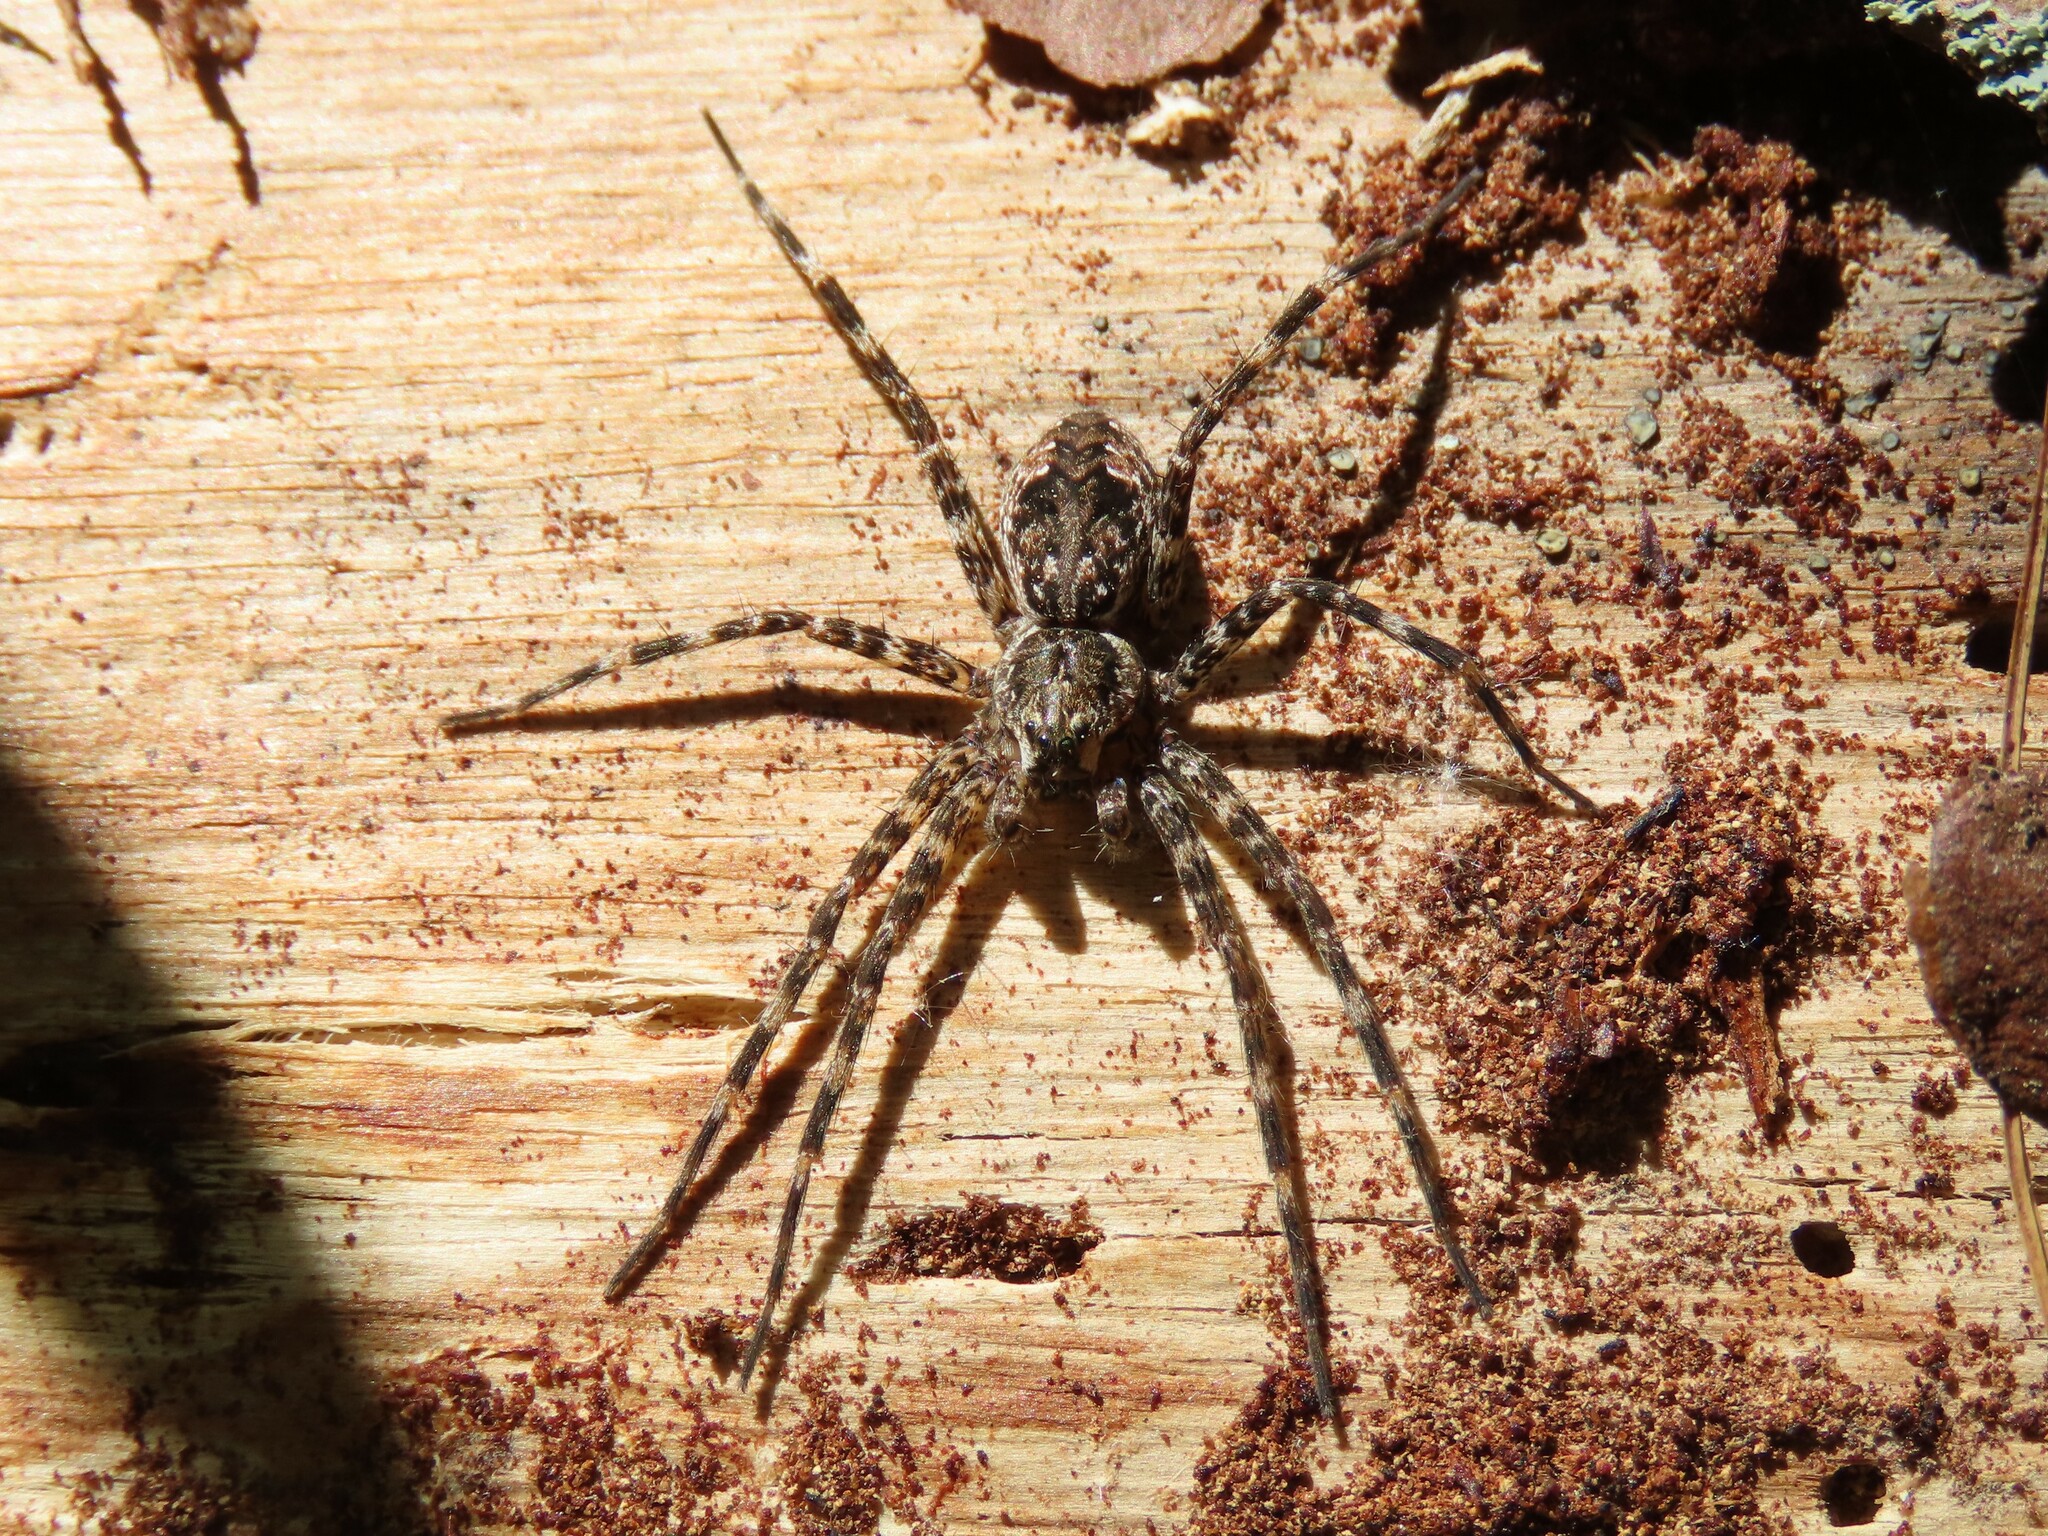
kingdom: Animalia
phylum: Arthropoda
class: Arachnida
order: Araneae
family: Pisauridae
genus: Dolomedes
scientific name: Dolomedes tenebrosus
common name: Dark fishing spider
